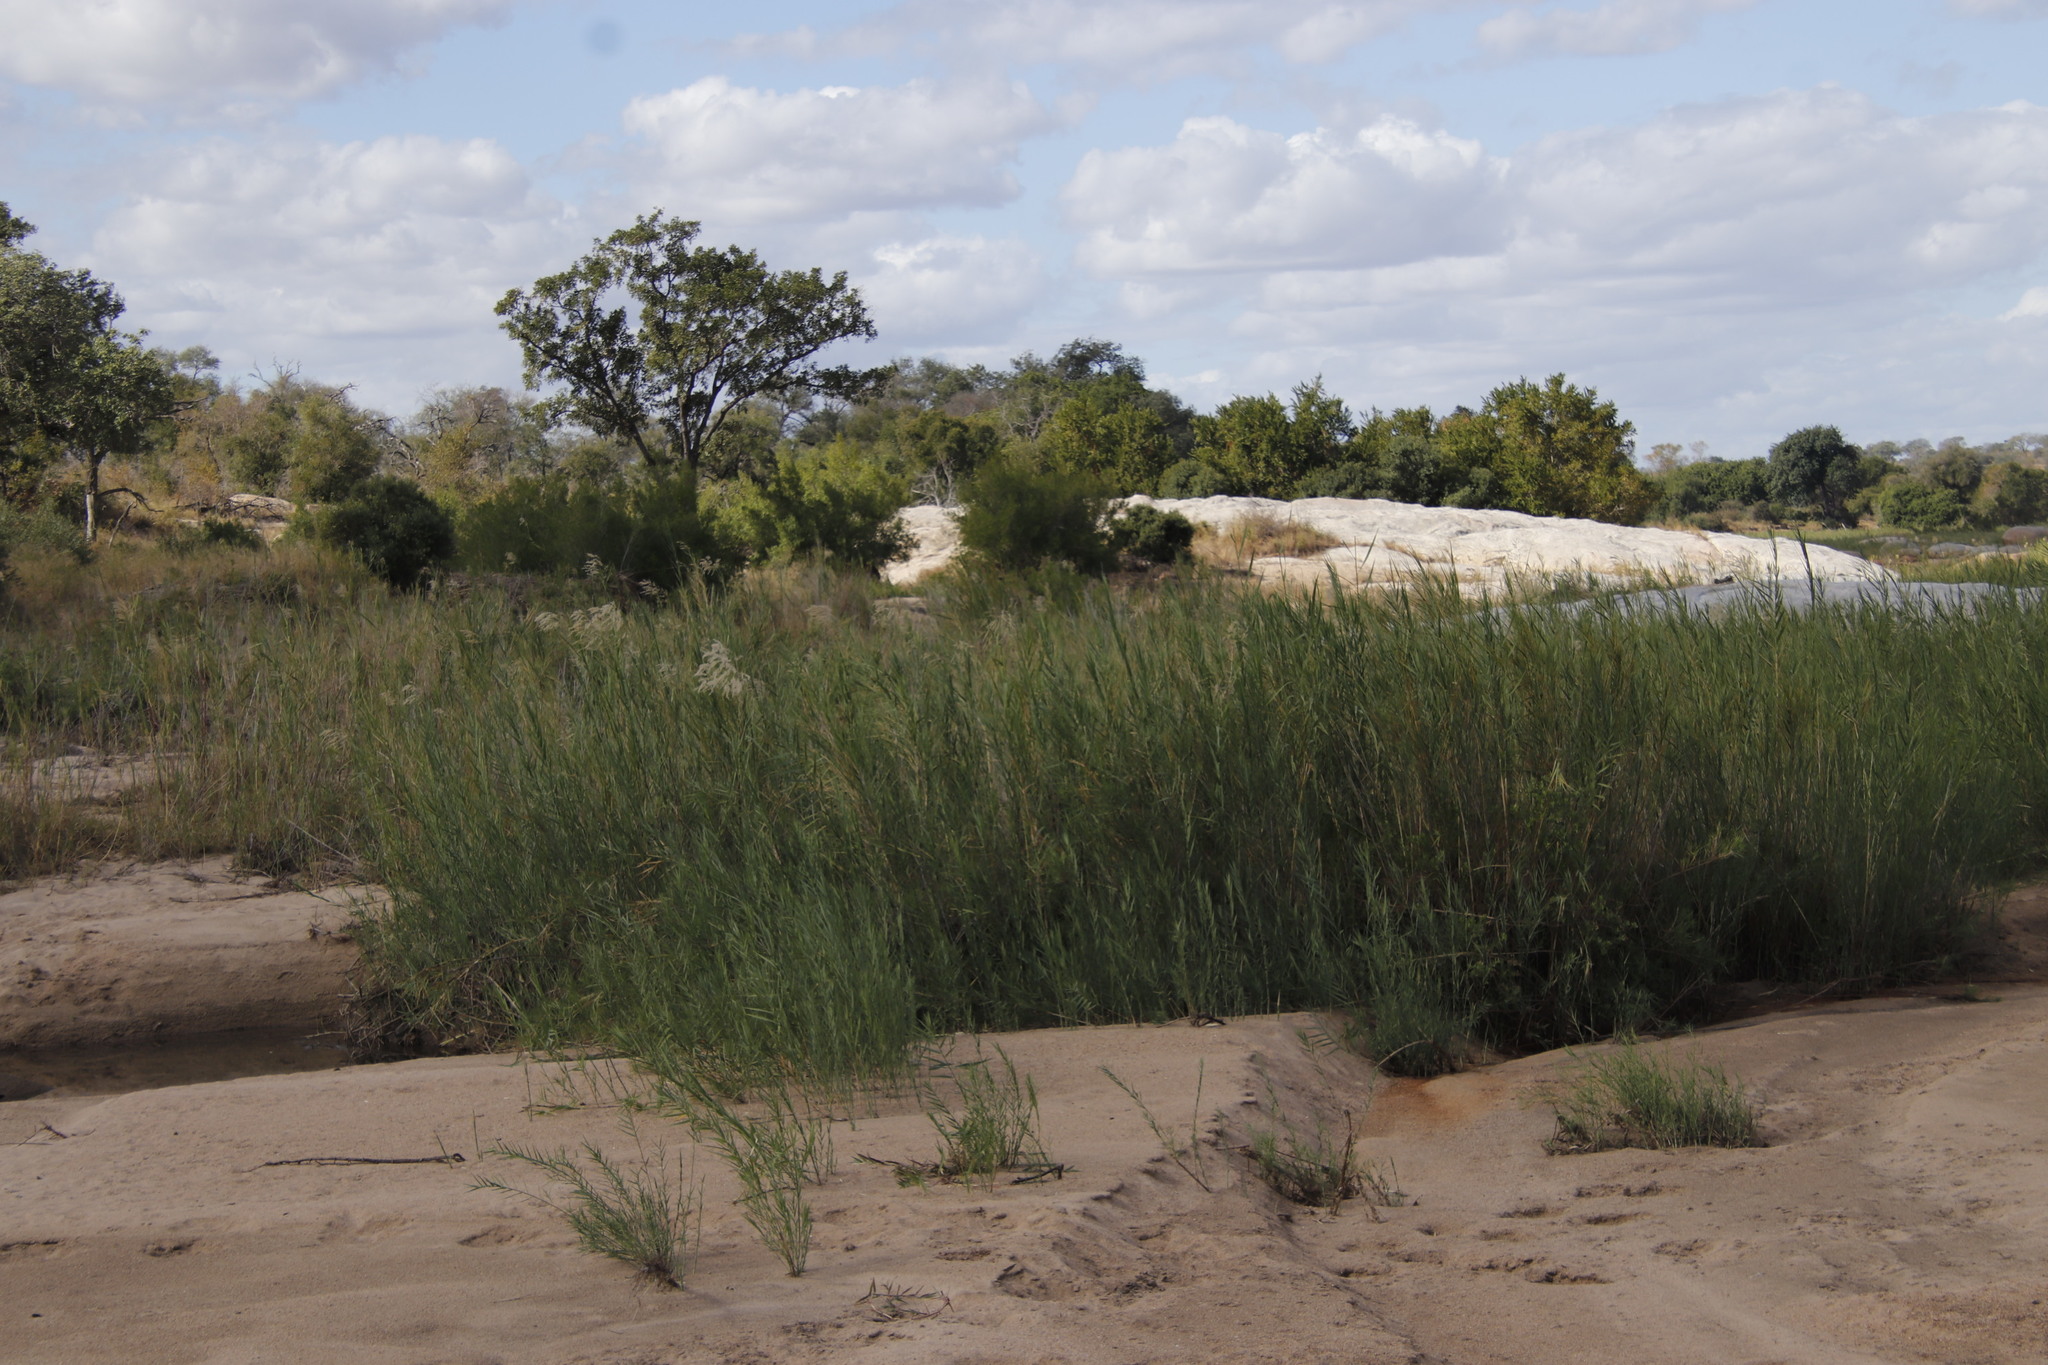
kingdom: Plantae
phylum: Tracheophyta
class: Liliopsida
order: Poales
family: Poaceae
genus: Phragmites
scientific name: Phragmites mauritianus
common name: Reed grass
